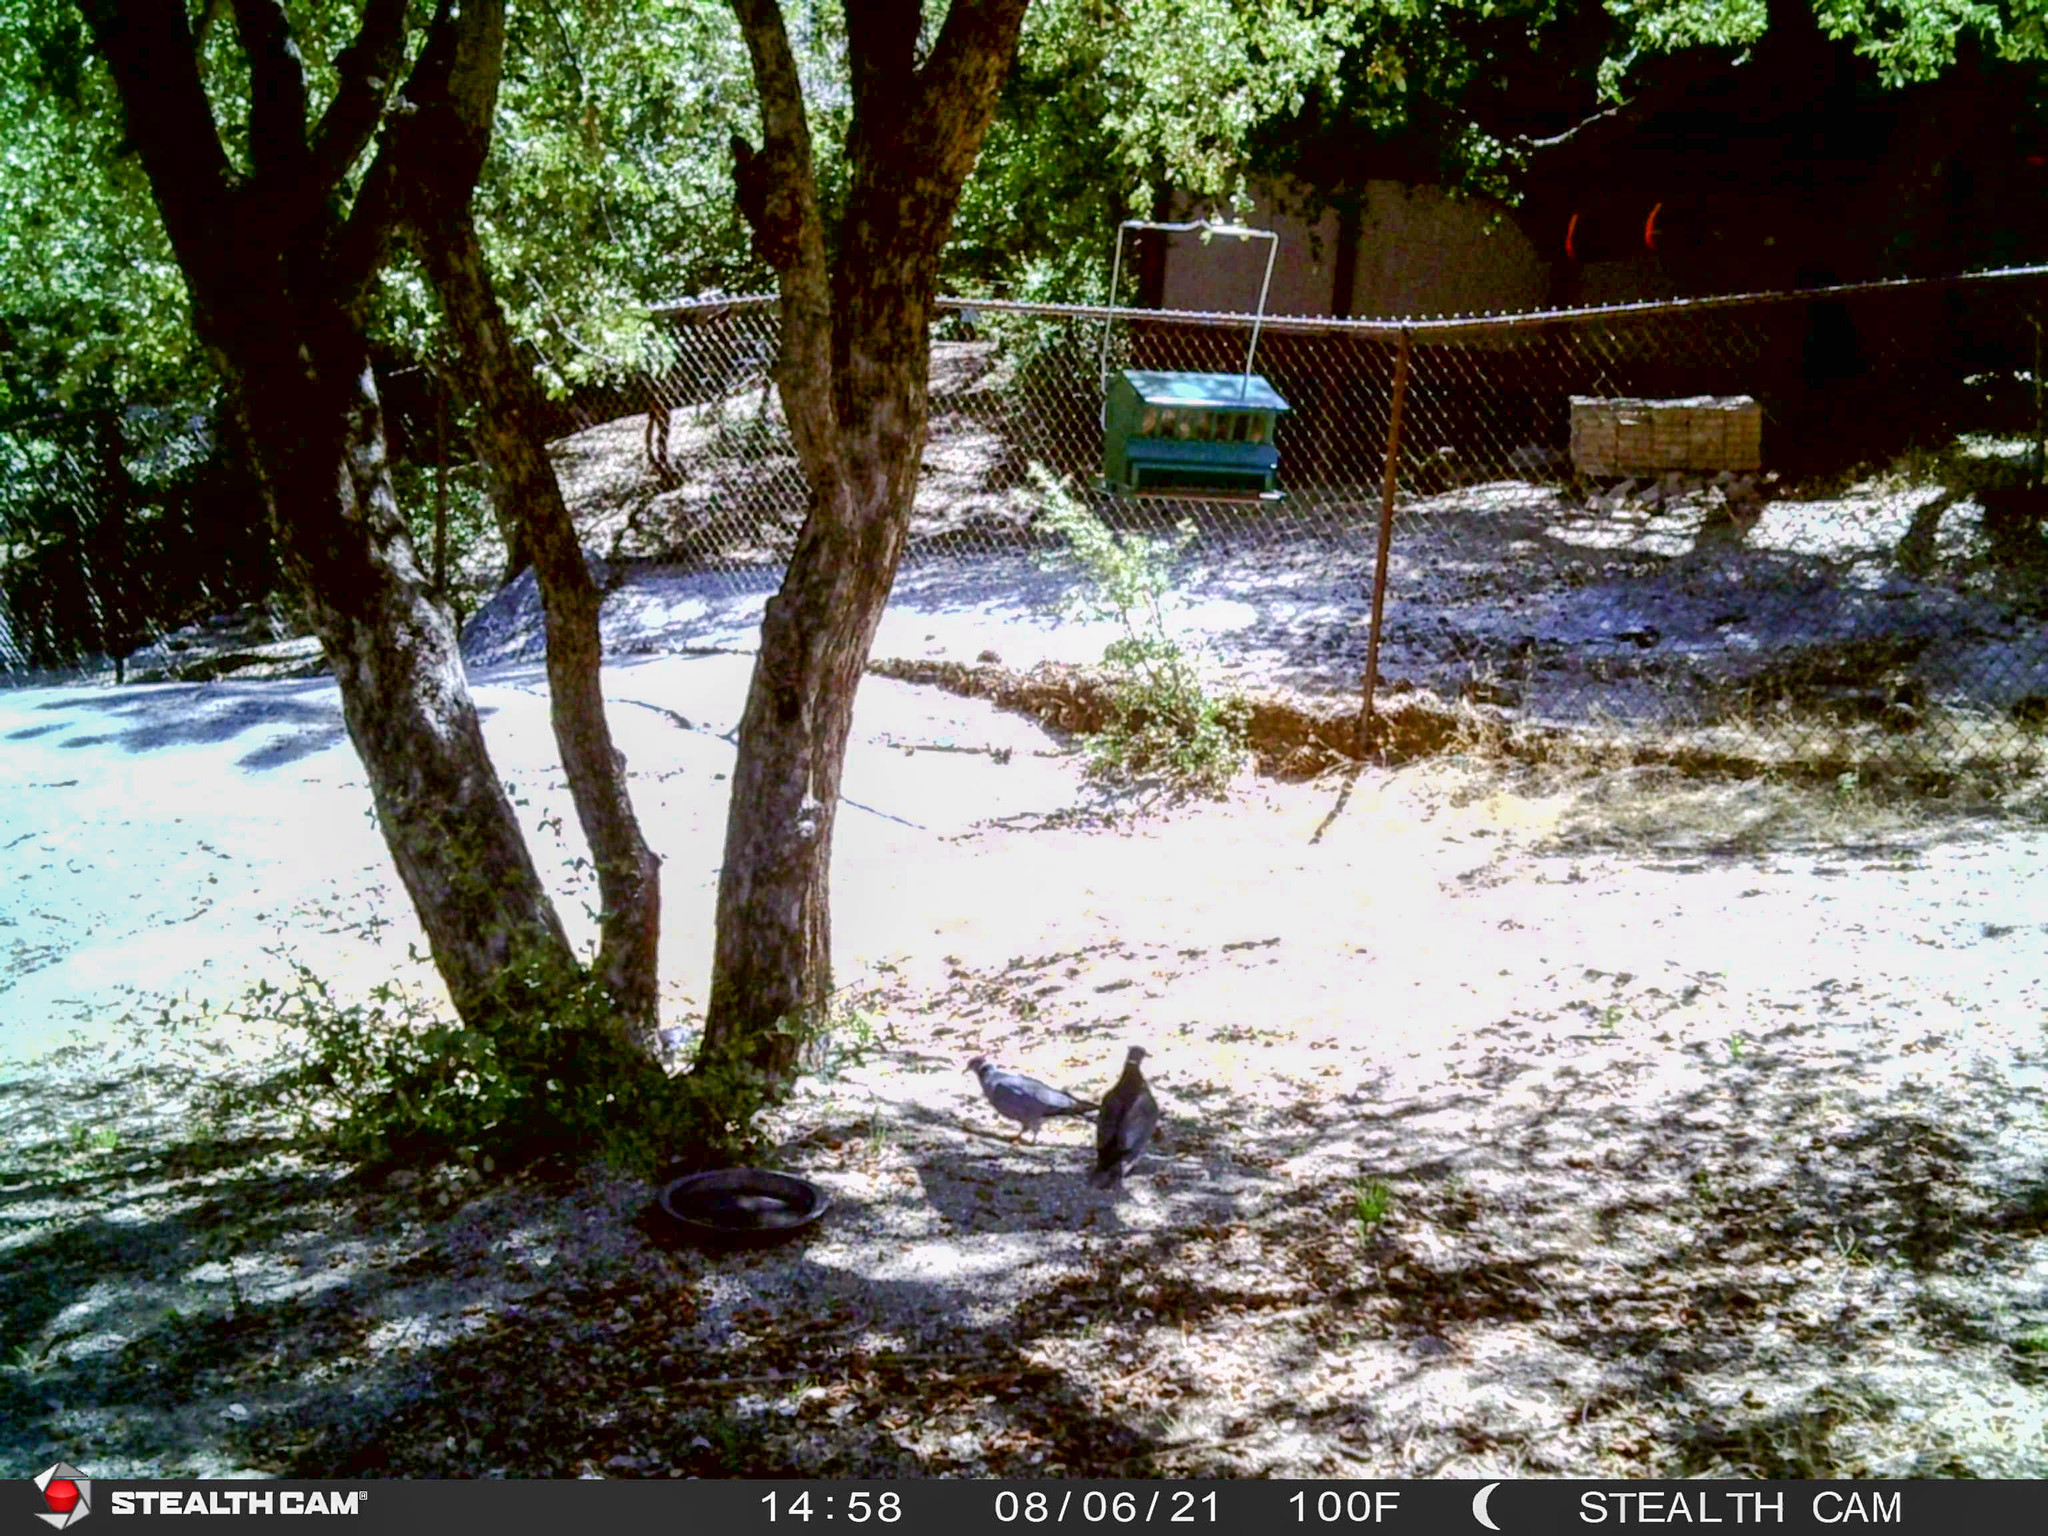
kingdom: Animalia
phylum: Chordata
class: Aves
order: Columbiformes
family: Columbidae
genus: Patagioenas
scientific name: Patagioenas fasciata
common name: Band-tailed pigeon
